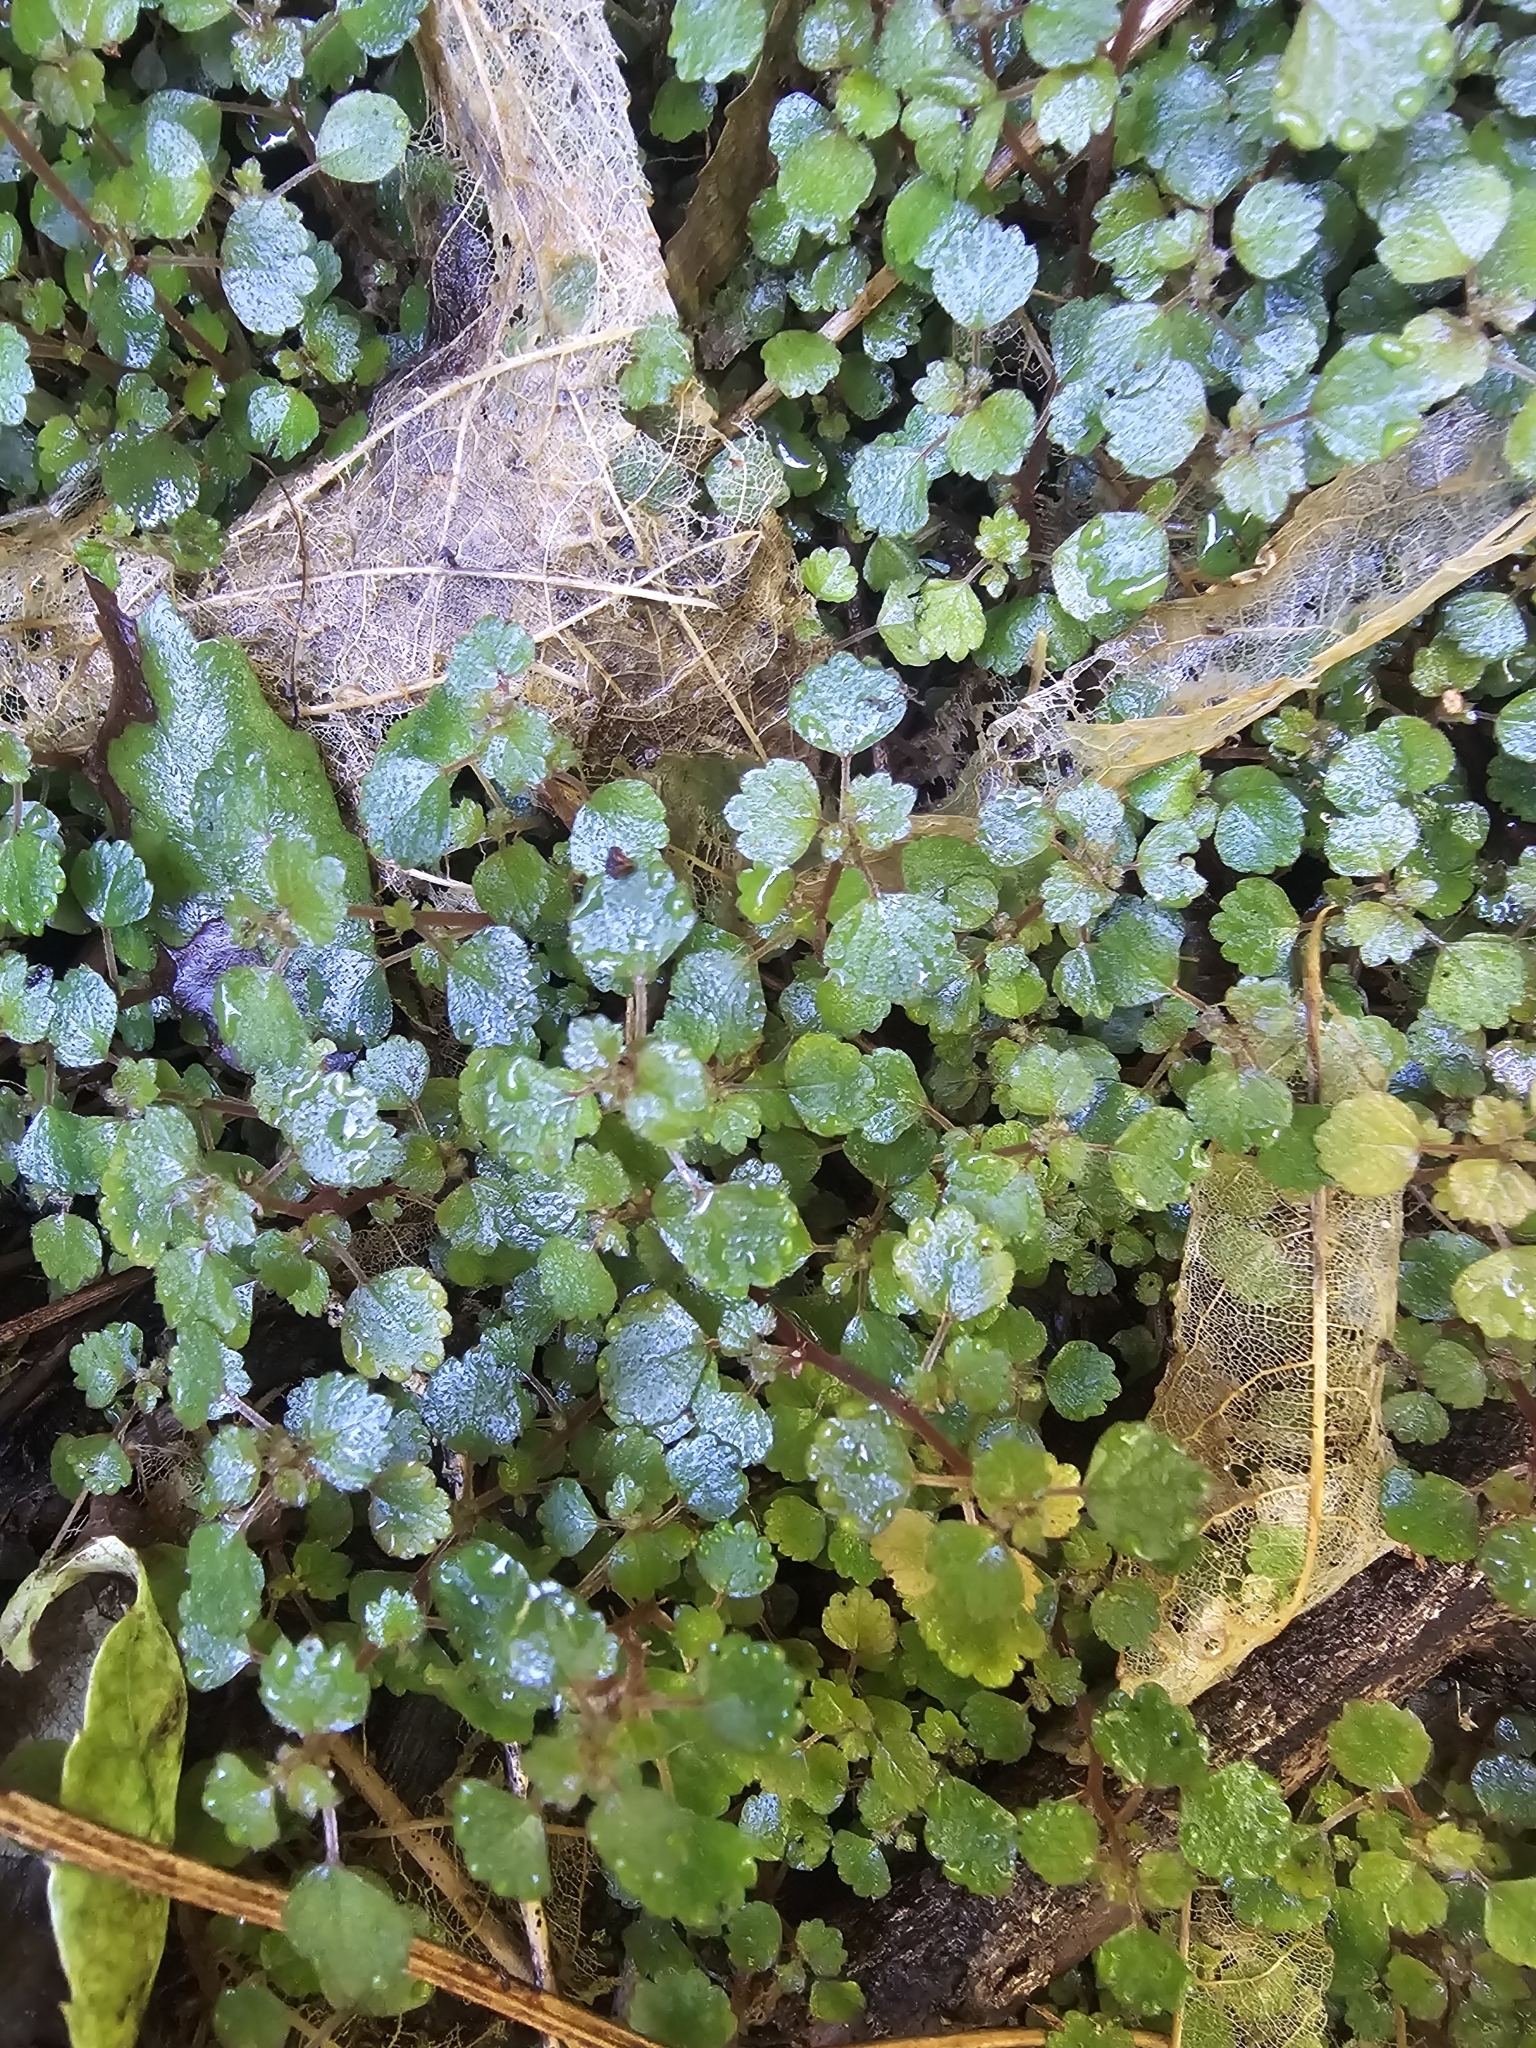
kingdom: Plantae
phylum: Tracheophyta
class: Magnoliopsida
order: Rosales
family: Urticaceae
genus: Australina
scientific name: Australina pusilla
